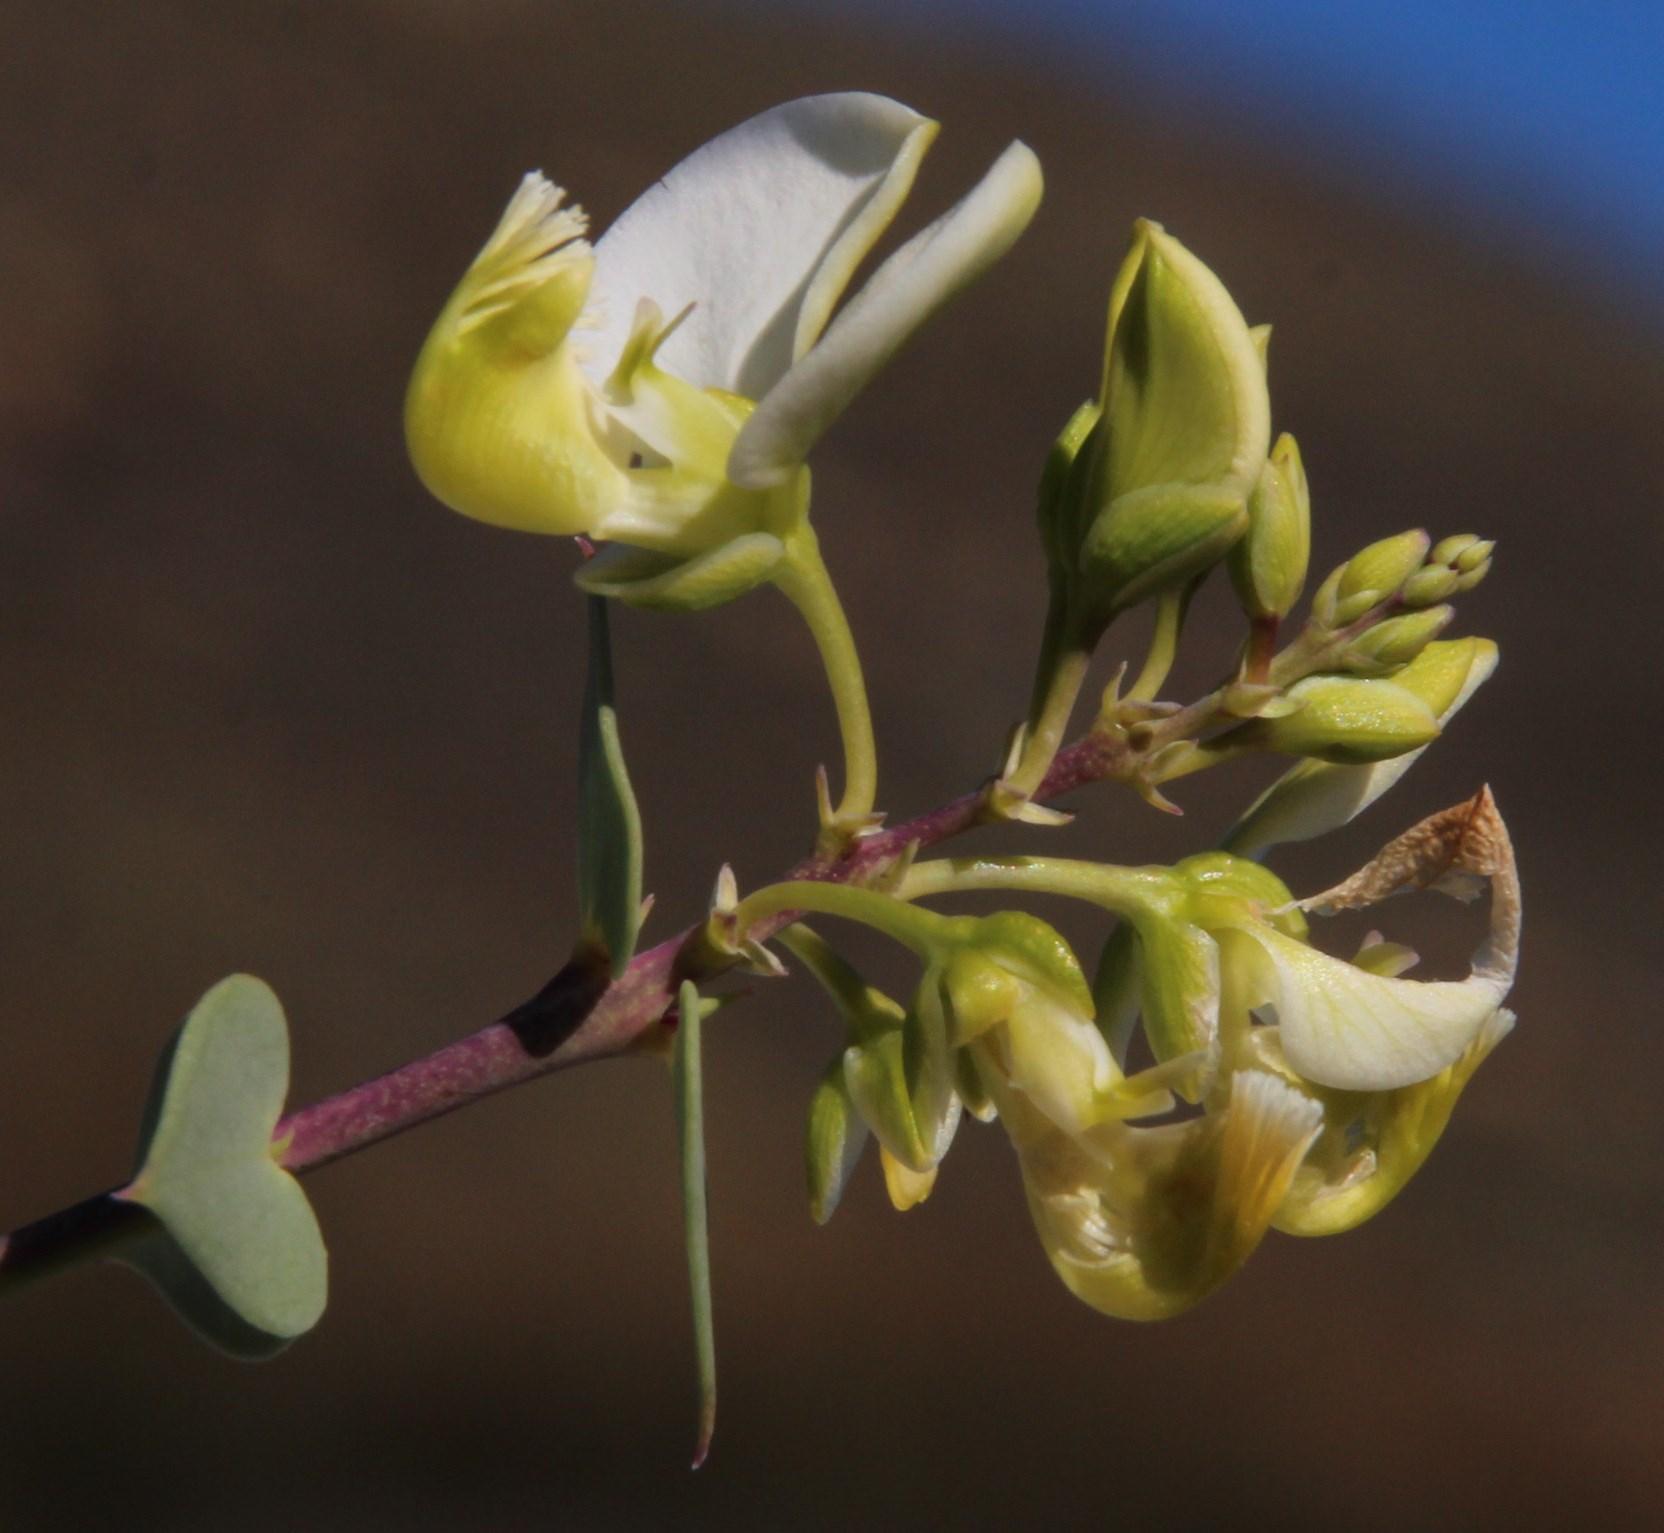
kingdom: Plantae
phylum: Tracheophyta
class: Magnoliopsida
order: Fabales
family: Polygalaceae
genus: Polygala
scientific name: Polygala fruticosa
